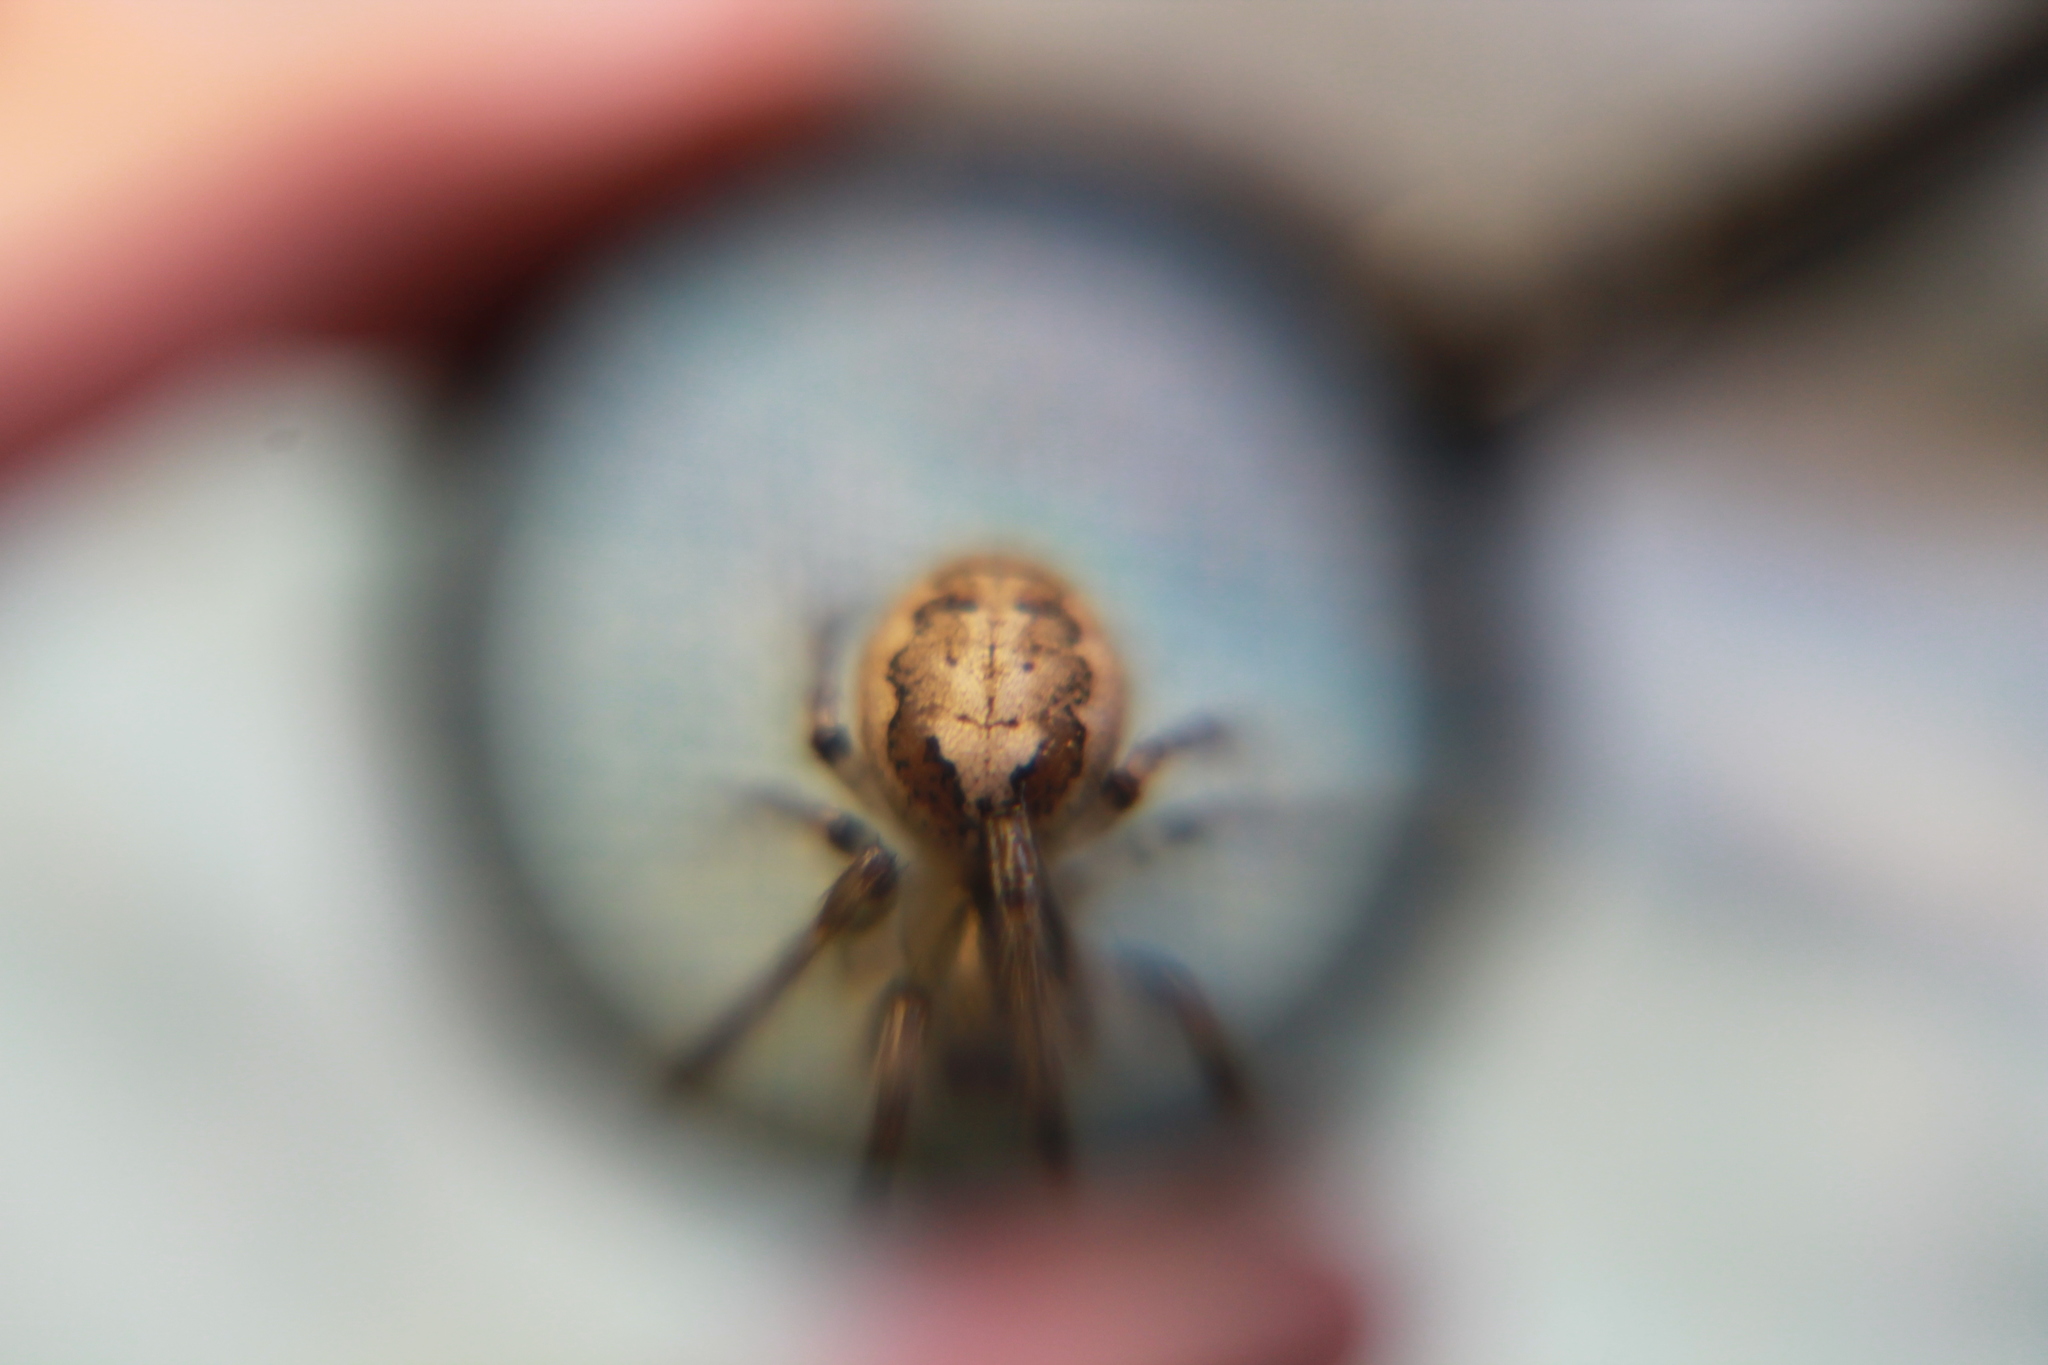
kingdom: Animalia
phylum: Arthropoda
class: Arachnida
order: Araneae
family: Araneidae
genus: Zygiella
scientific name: Zygiella x-notata
